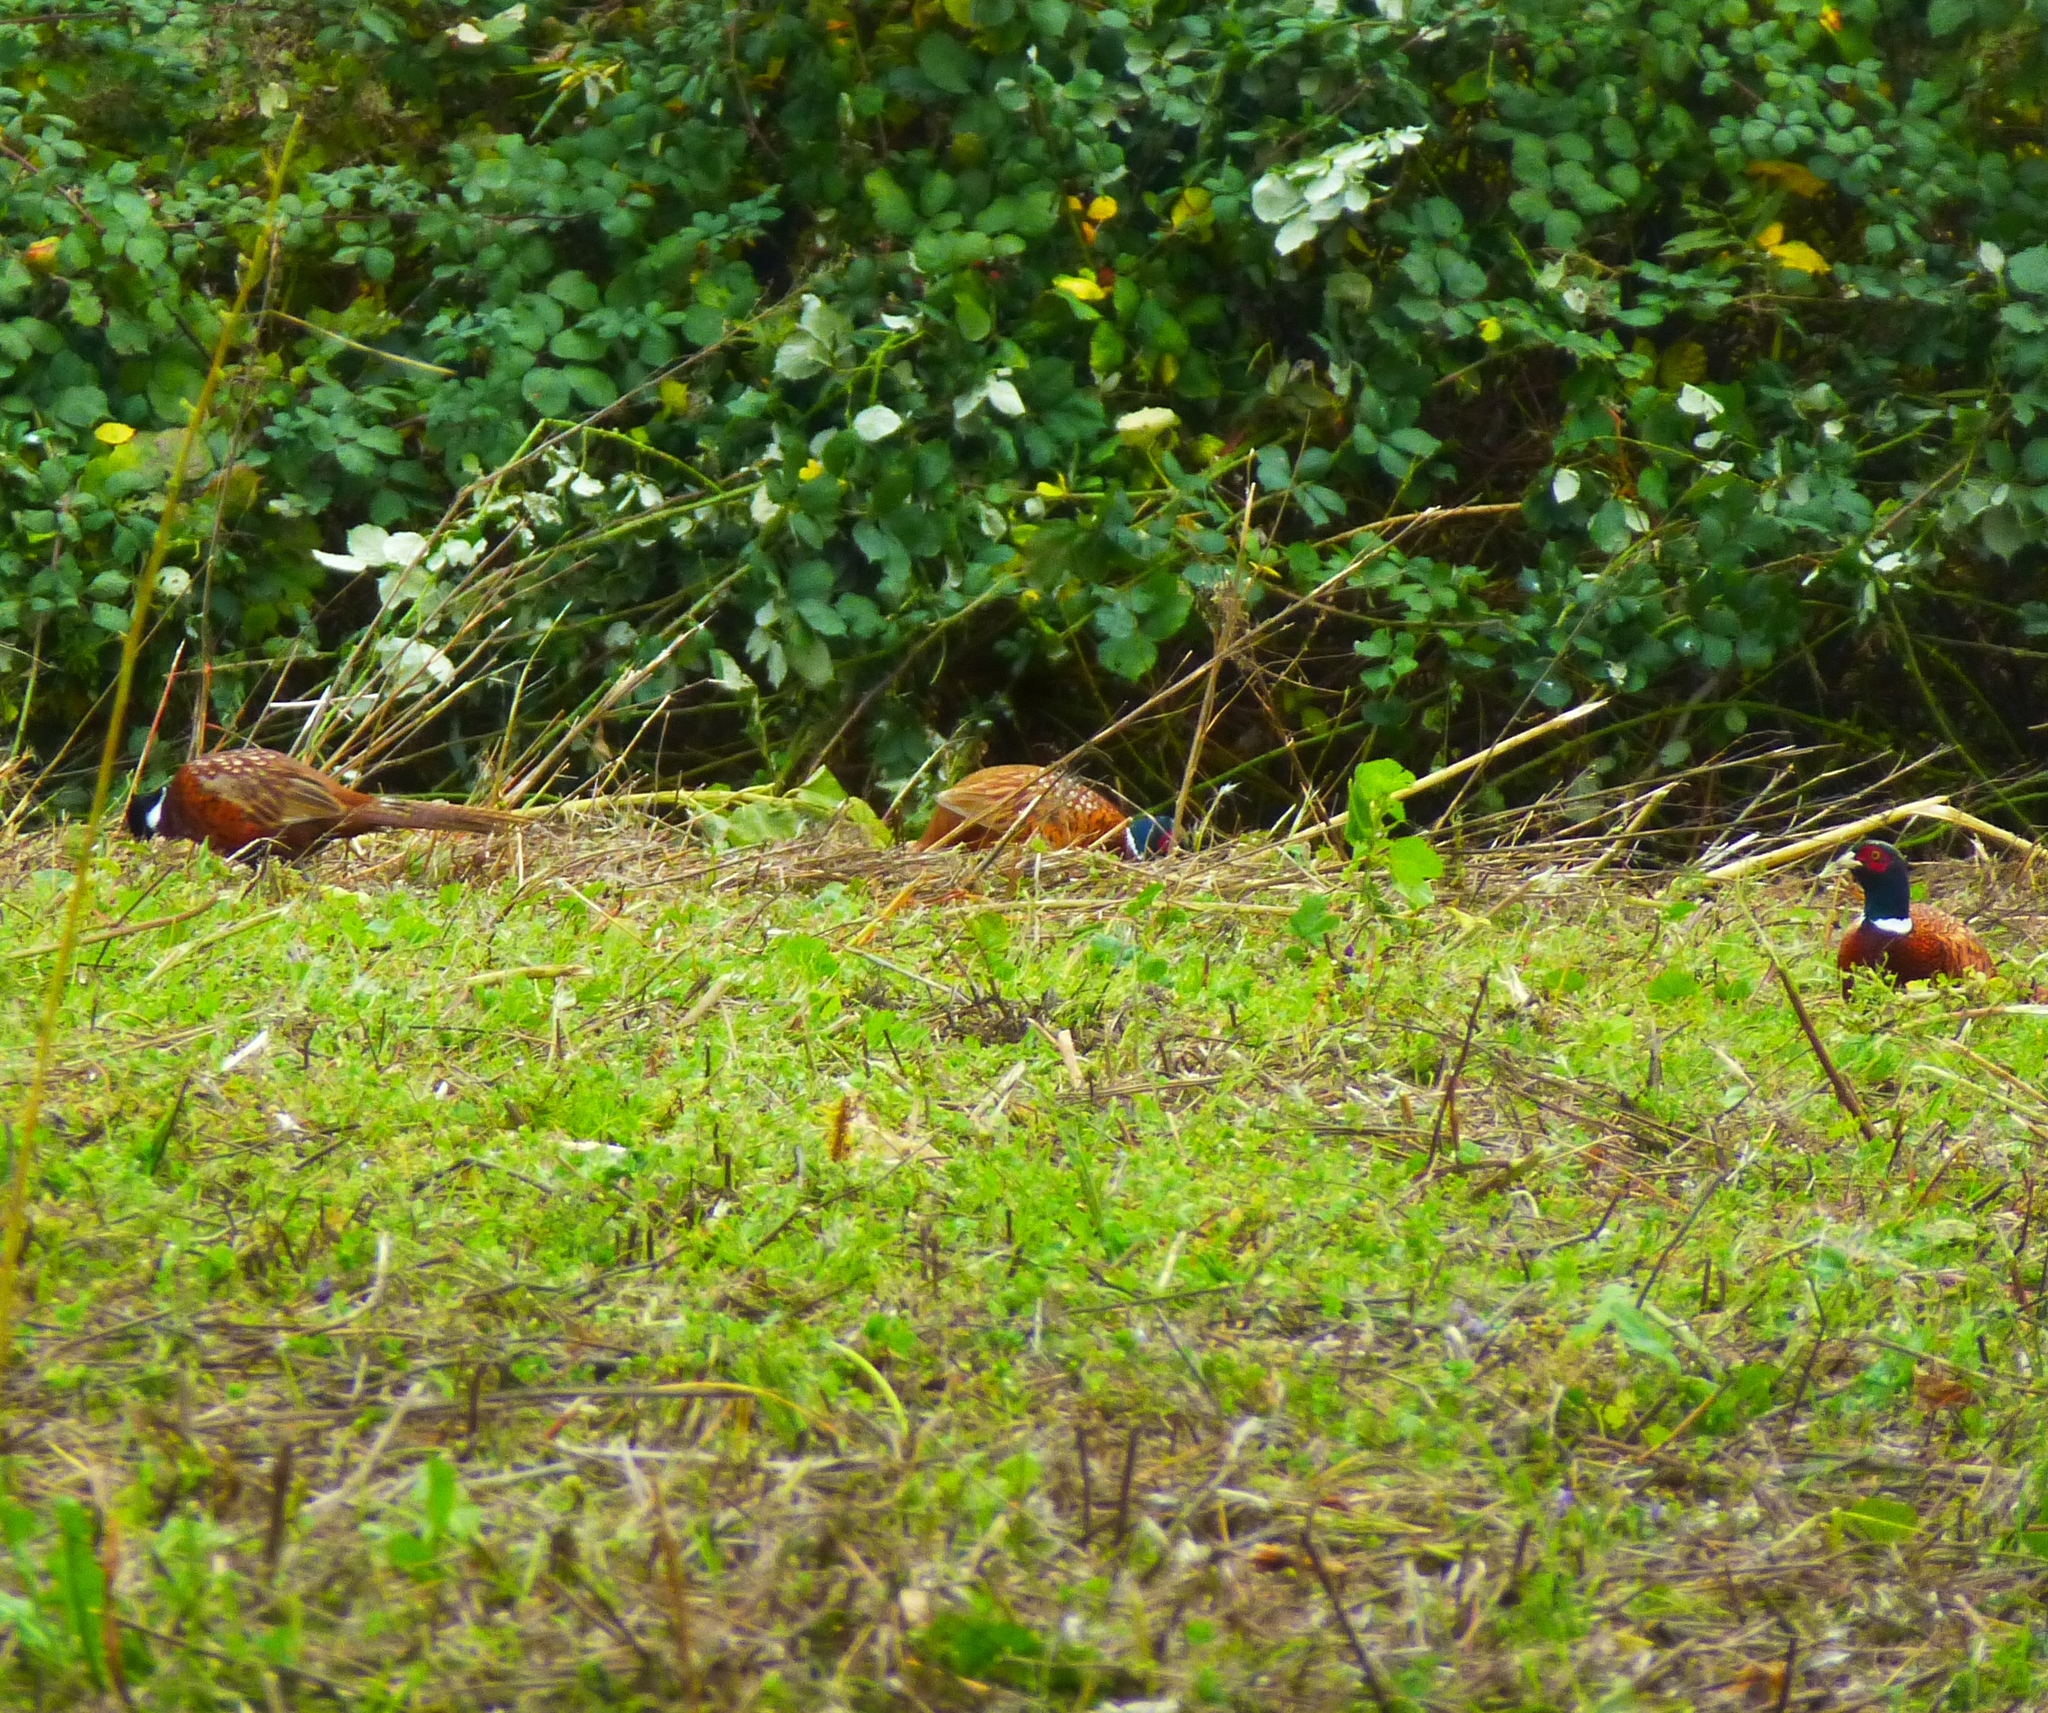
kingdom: Animalia
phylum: Chordata
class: Aves
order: Galliformes
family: Phasianidae
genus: Phasianus
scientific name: Phasianus colchicus
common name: Common pheasant
